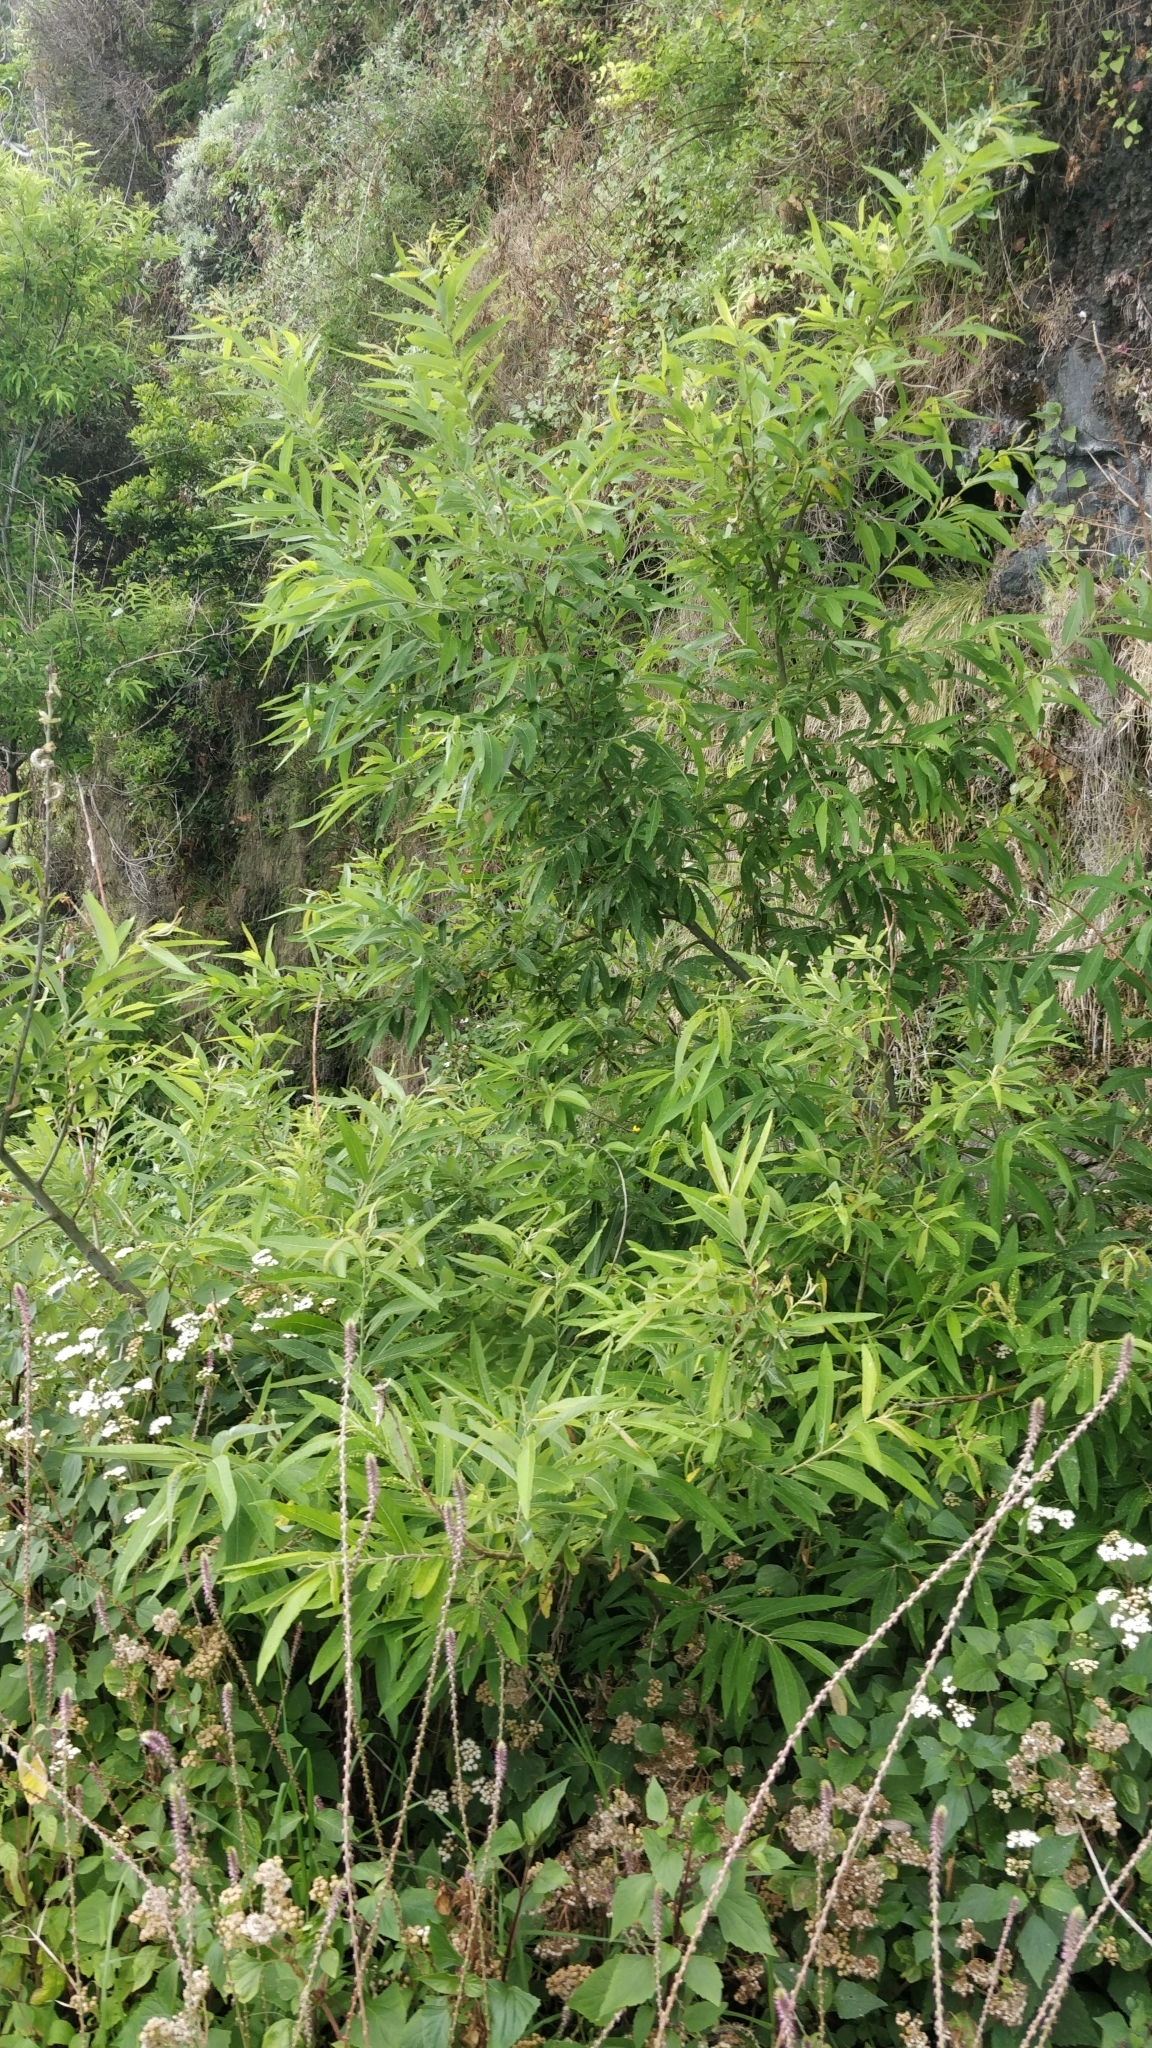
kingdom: Plantae
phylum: Tracheophyta
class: Magnoliopsida
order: Malpighiales
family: Salicaceae
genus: Salix
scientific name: Salix canariensis
